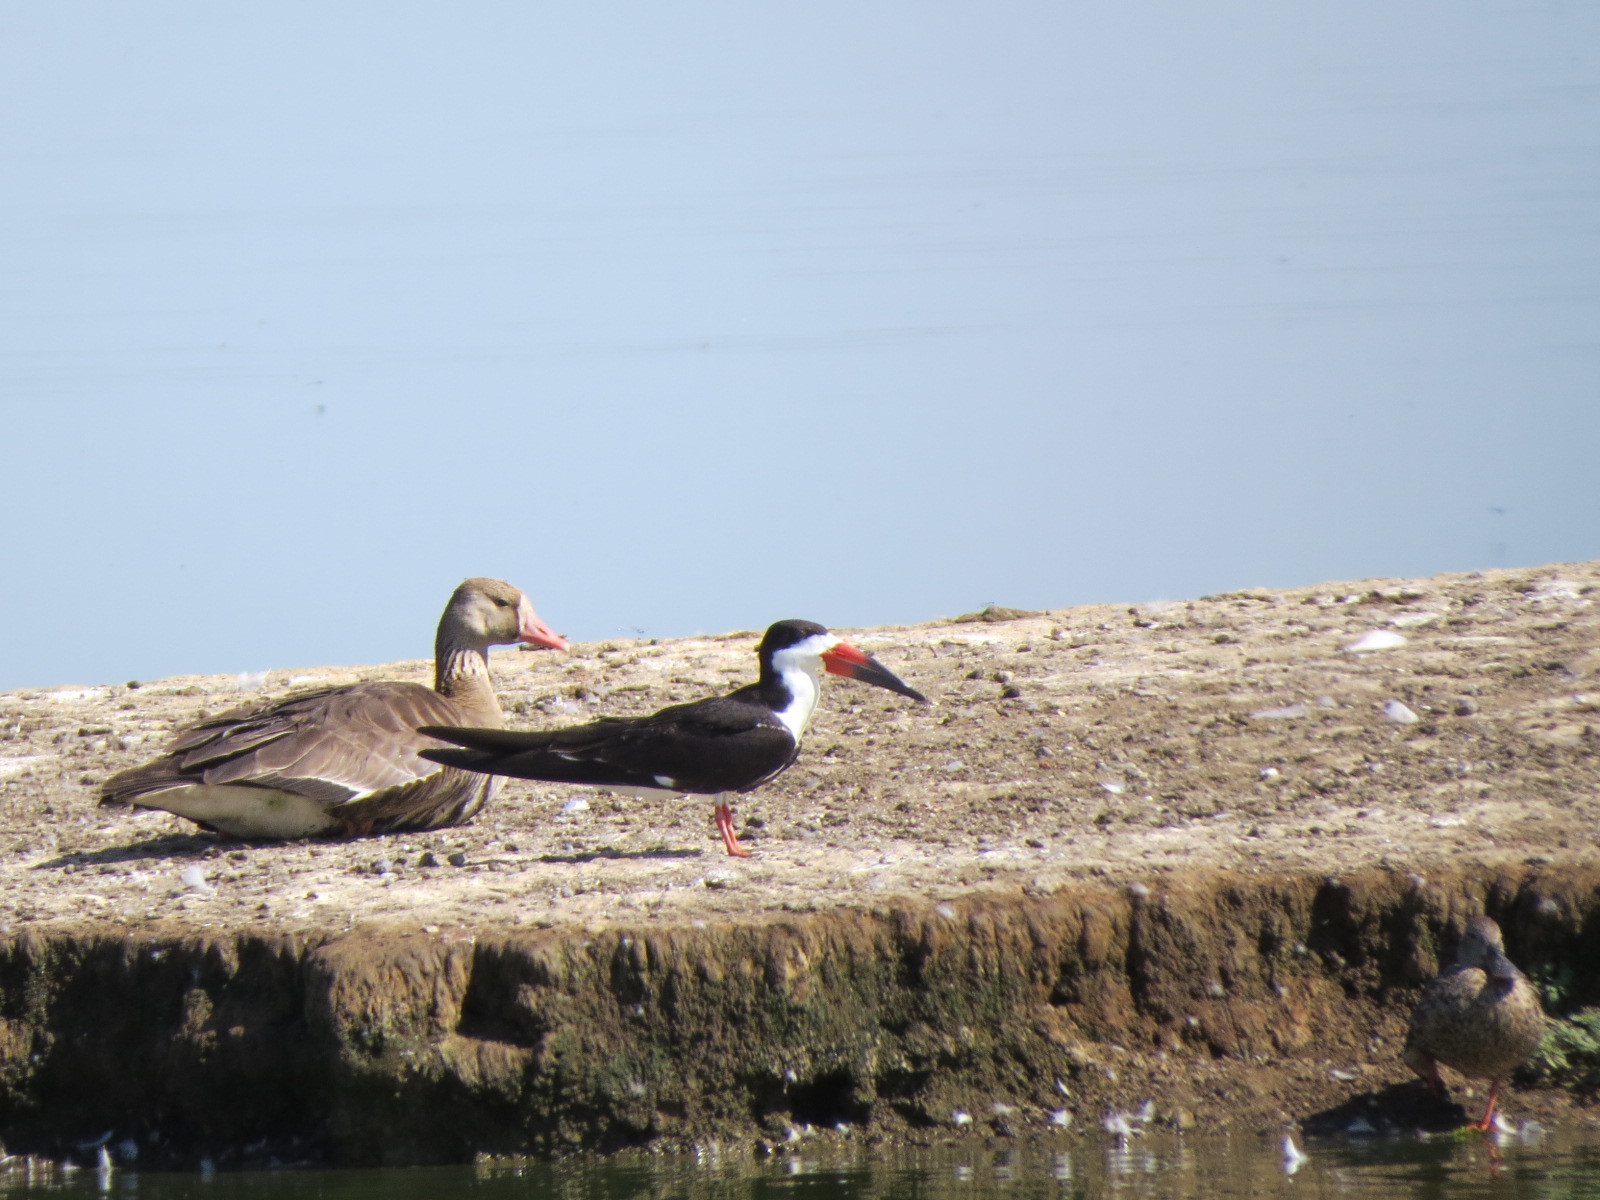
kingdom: Animalia
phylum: Chordata
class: Aves
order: Charadriiformes
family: Laridae
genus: Rynchops
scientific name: Rynchops niger
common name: Black skimmer
